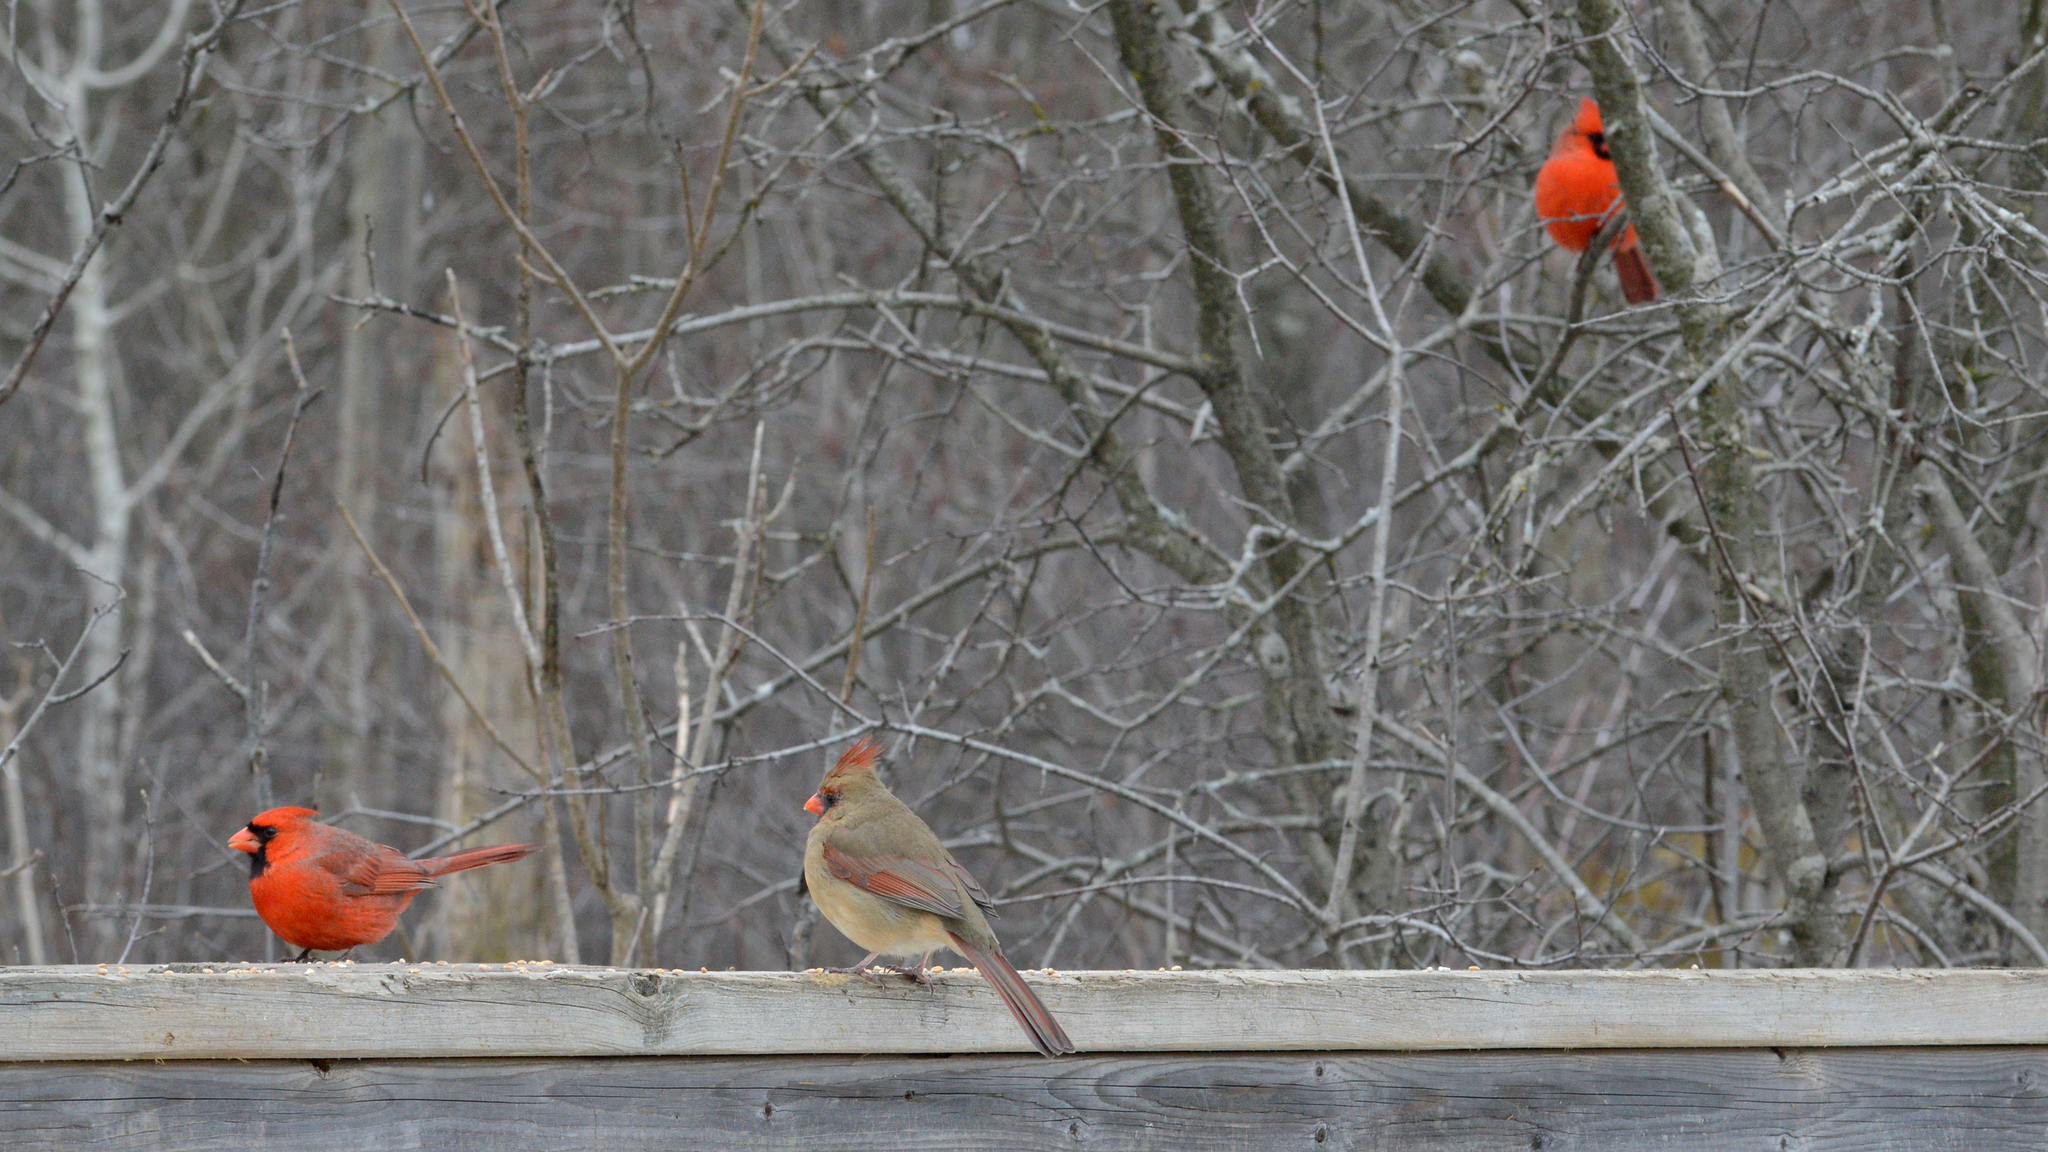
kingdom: Animalia
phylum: Chordata
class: Aves
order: Passeriformes
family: Cardinalidae
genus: Cardinalis
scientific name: Cardinalis cardinalis
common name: Northern cardinal
